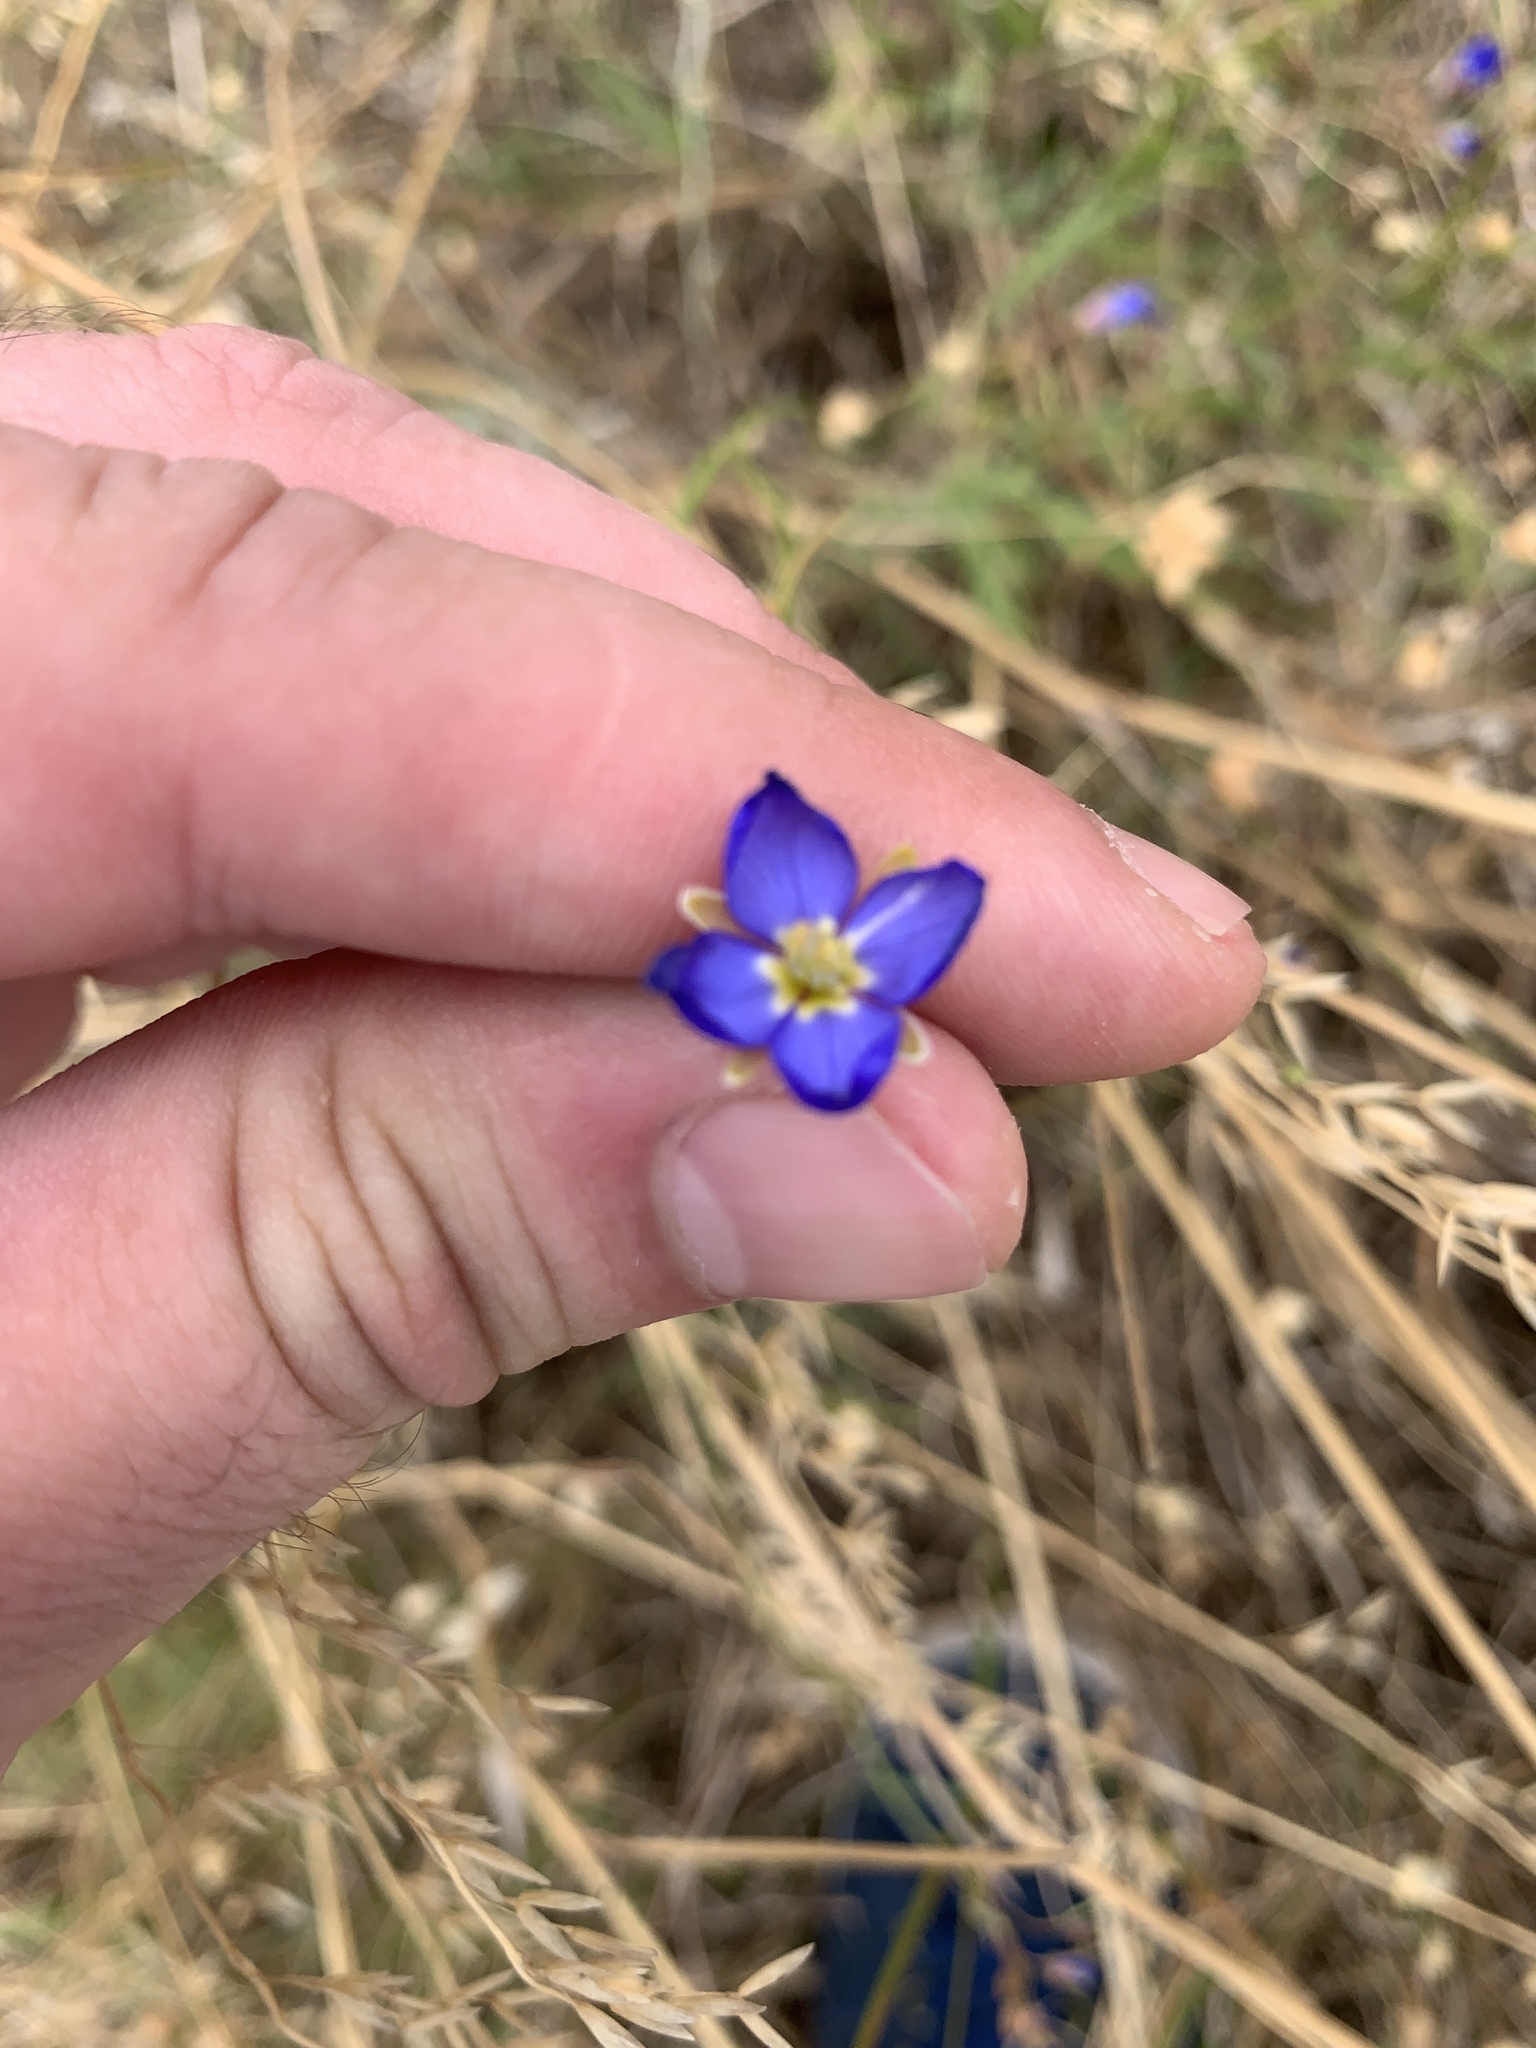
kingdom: Plantae
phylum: Tracheophyta
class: Magnoliopsida
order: Brassicales
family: Brassicaceae
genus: Heliophila
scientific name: Heliophila africana
